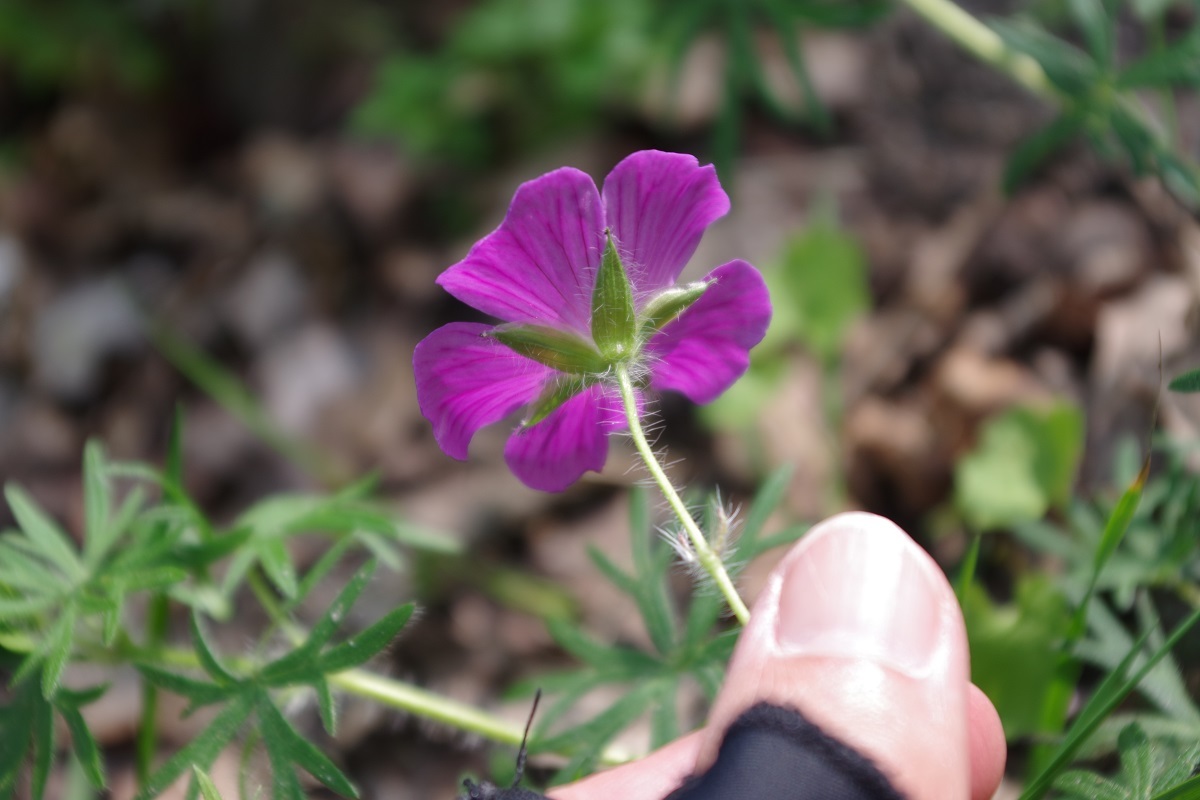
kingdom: Plantae
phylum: Tracheophyta
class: Magnoliopsida
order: Geraniales
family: Geraniaceae
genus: Geranium
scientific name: Geranium sanguineum
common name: Bloody crane's-bill
